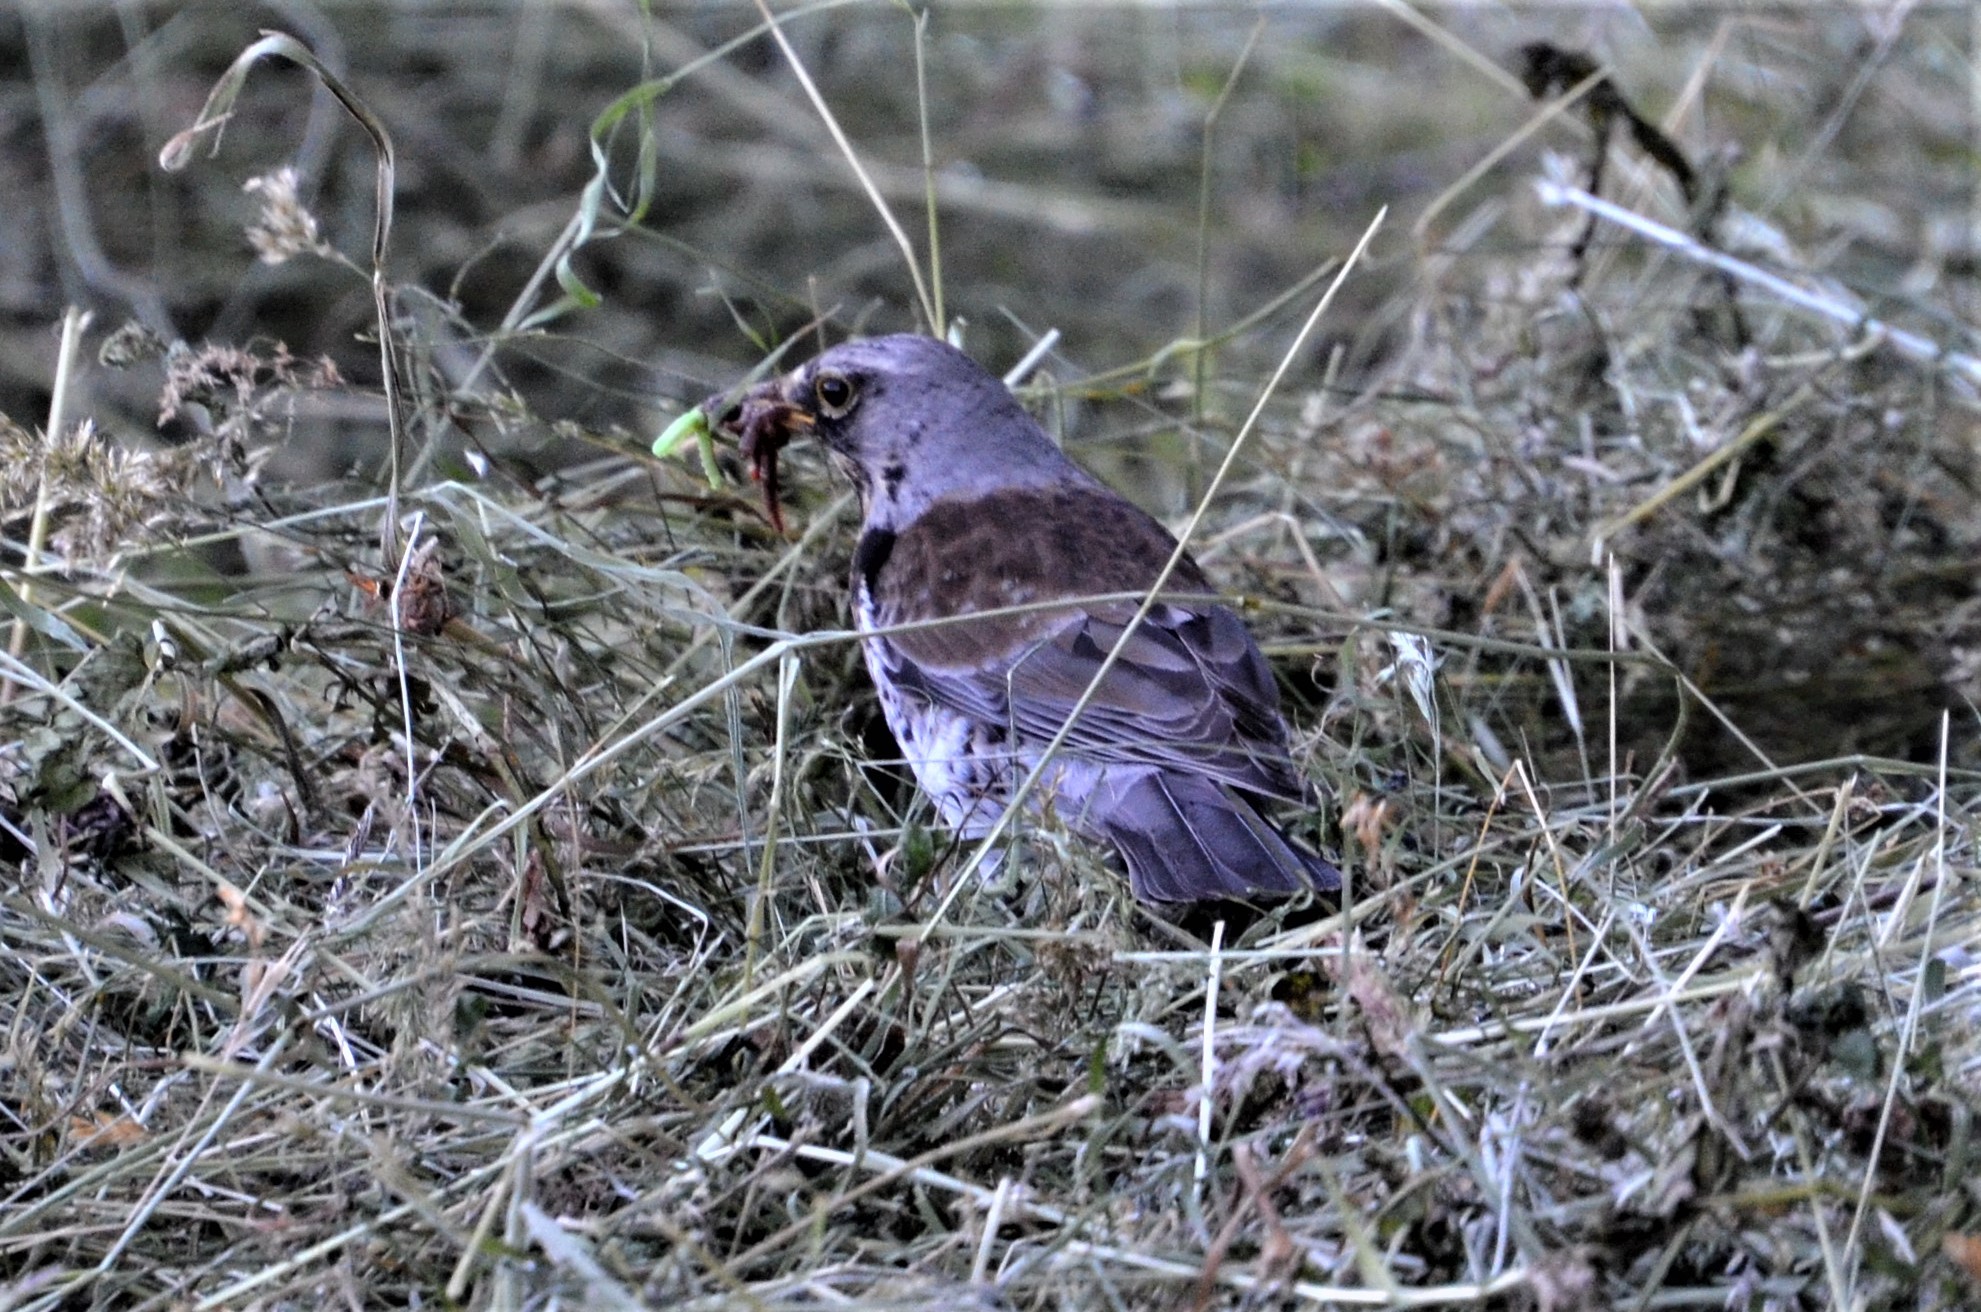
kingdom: Animalia
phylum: Chordata
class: Aves
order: Passeriformes
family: Turdidae
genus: Turdus
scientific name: Turdus pilaris
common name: Fieldfare
